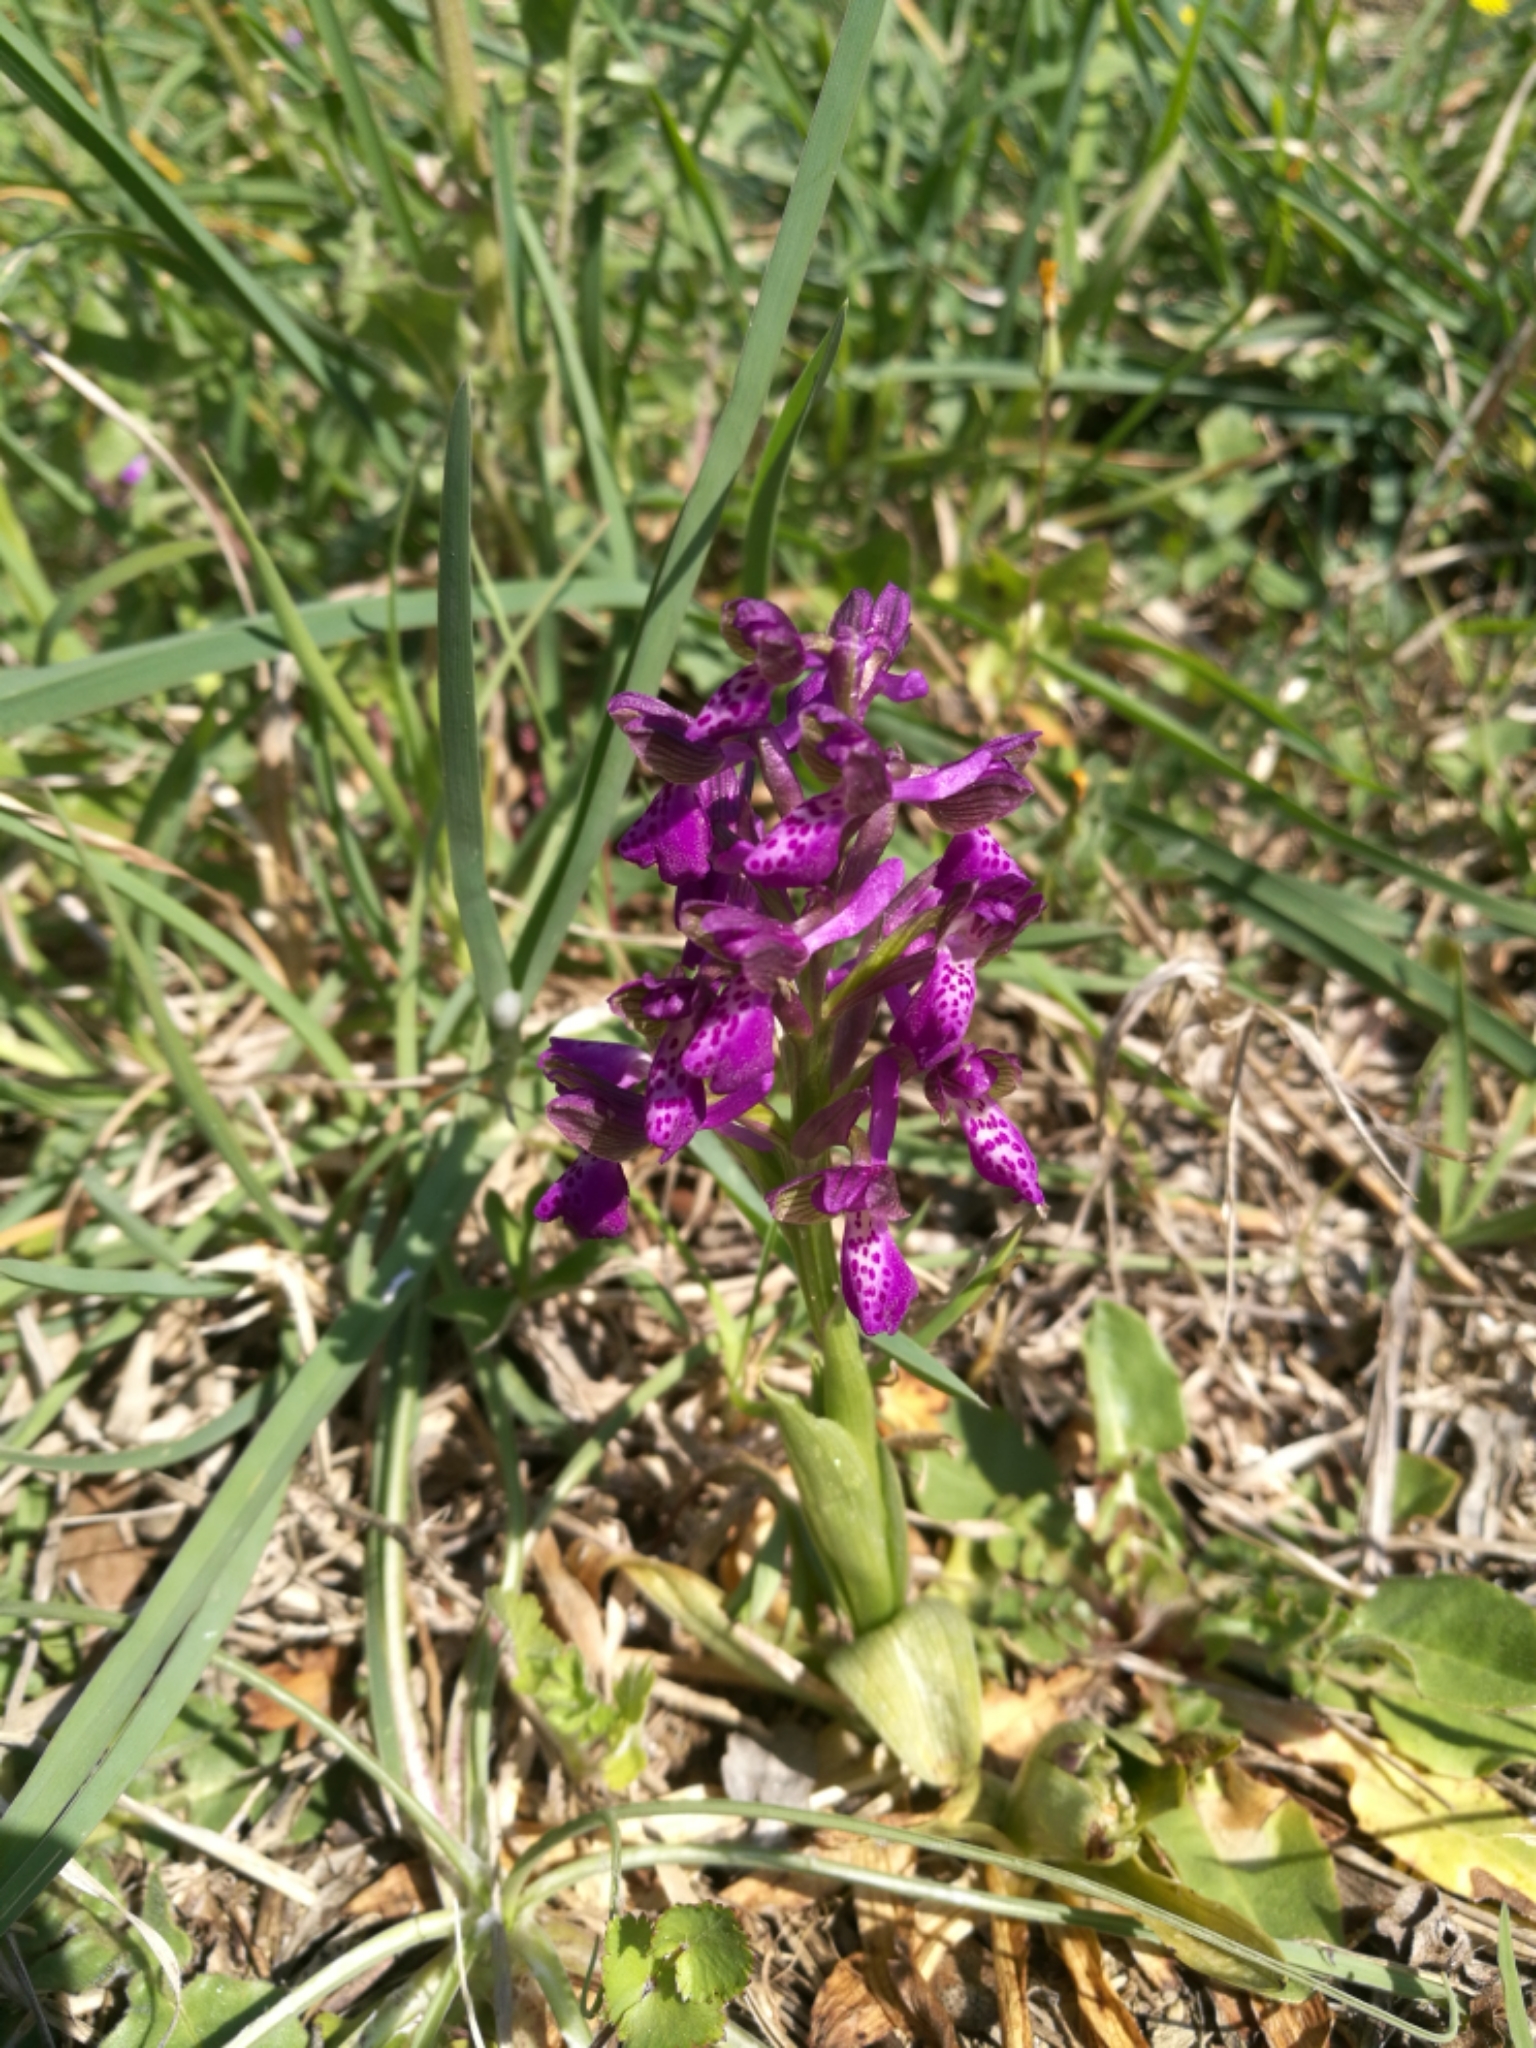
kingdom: Plantae
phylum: Tracheophyta
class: Liliopsida
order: Asparagales
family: Orchidaceae
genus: Anacamptis
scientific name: Anacamptis morio
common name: Green-winged orchid
